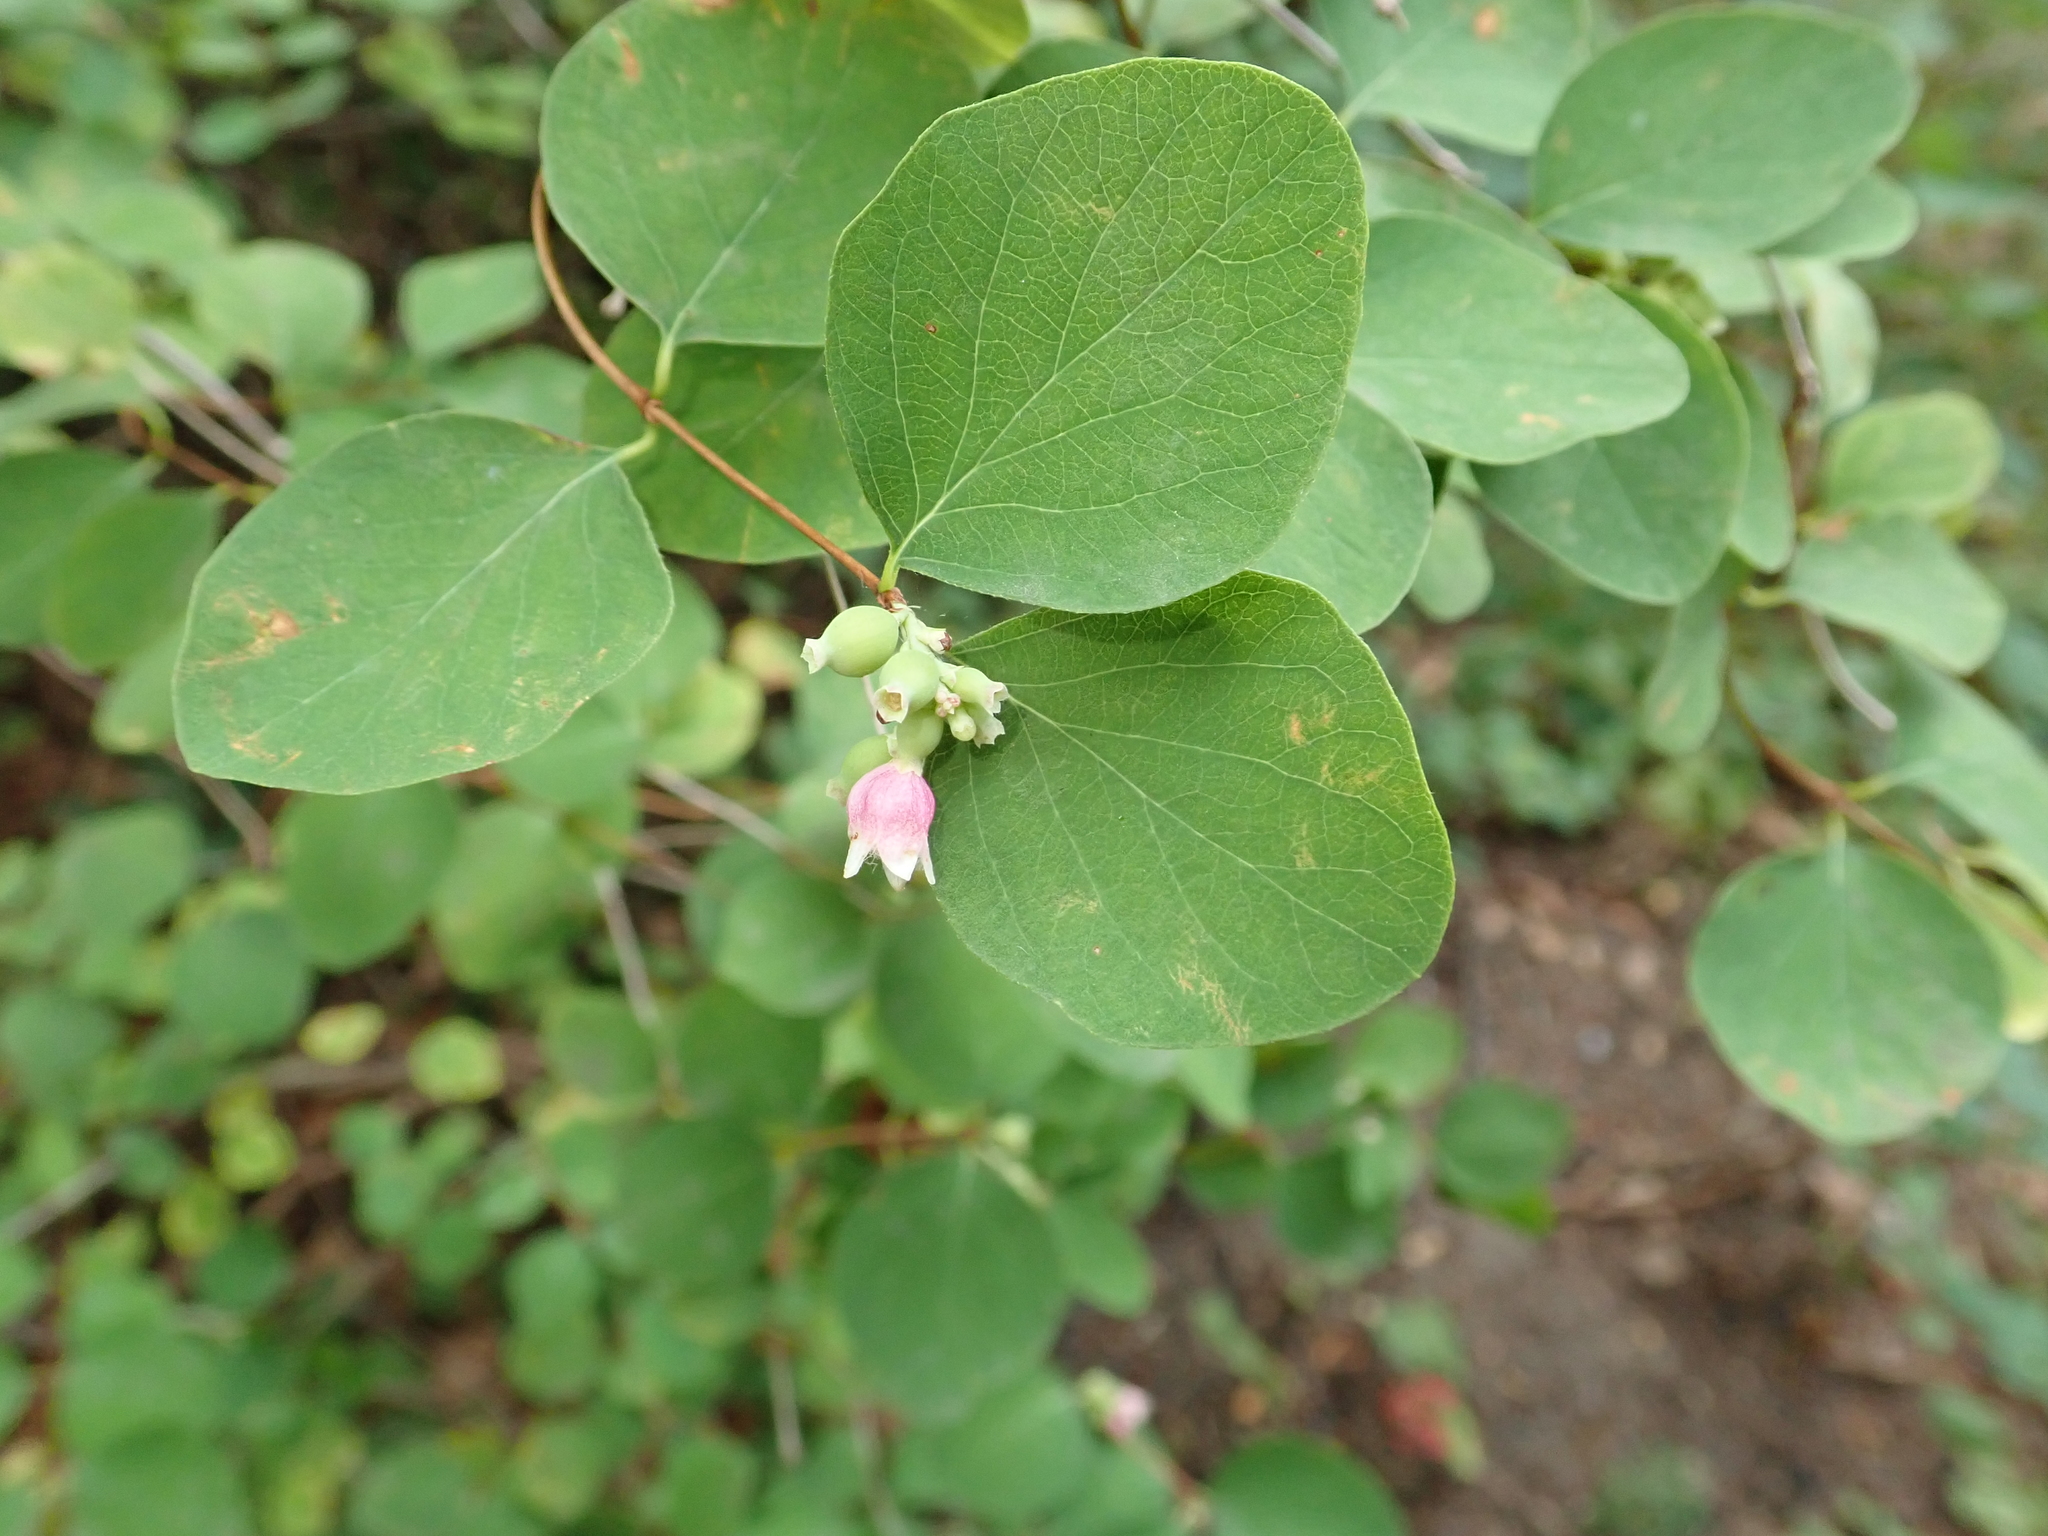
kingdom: Plantae
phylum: Tracheophyta
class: Magnoliopsida
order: Dipsacales
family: Caprifoliaceae
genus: Symphoricarpos
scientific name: Symphoricarpos albus
